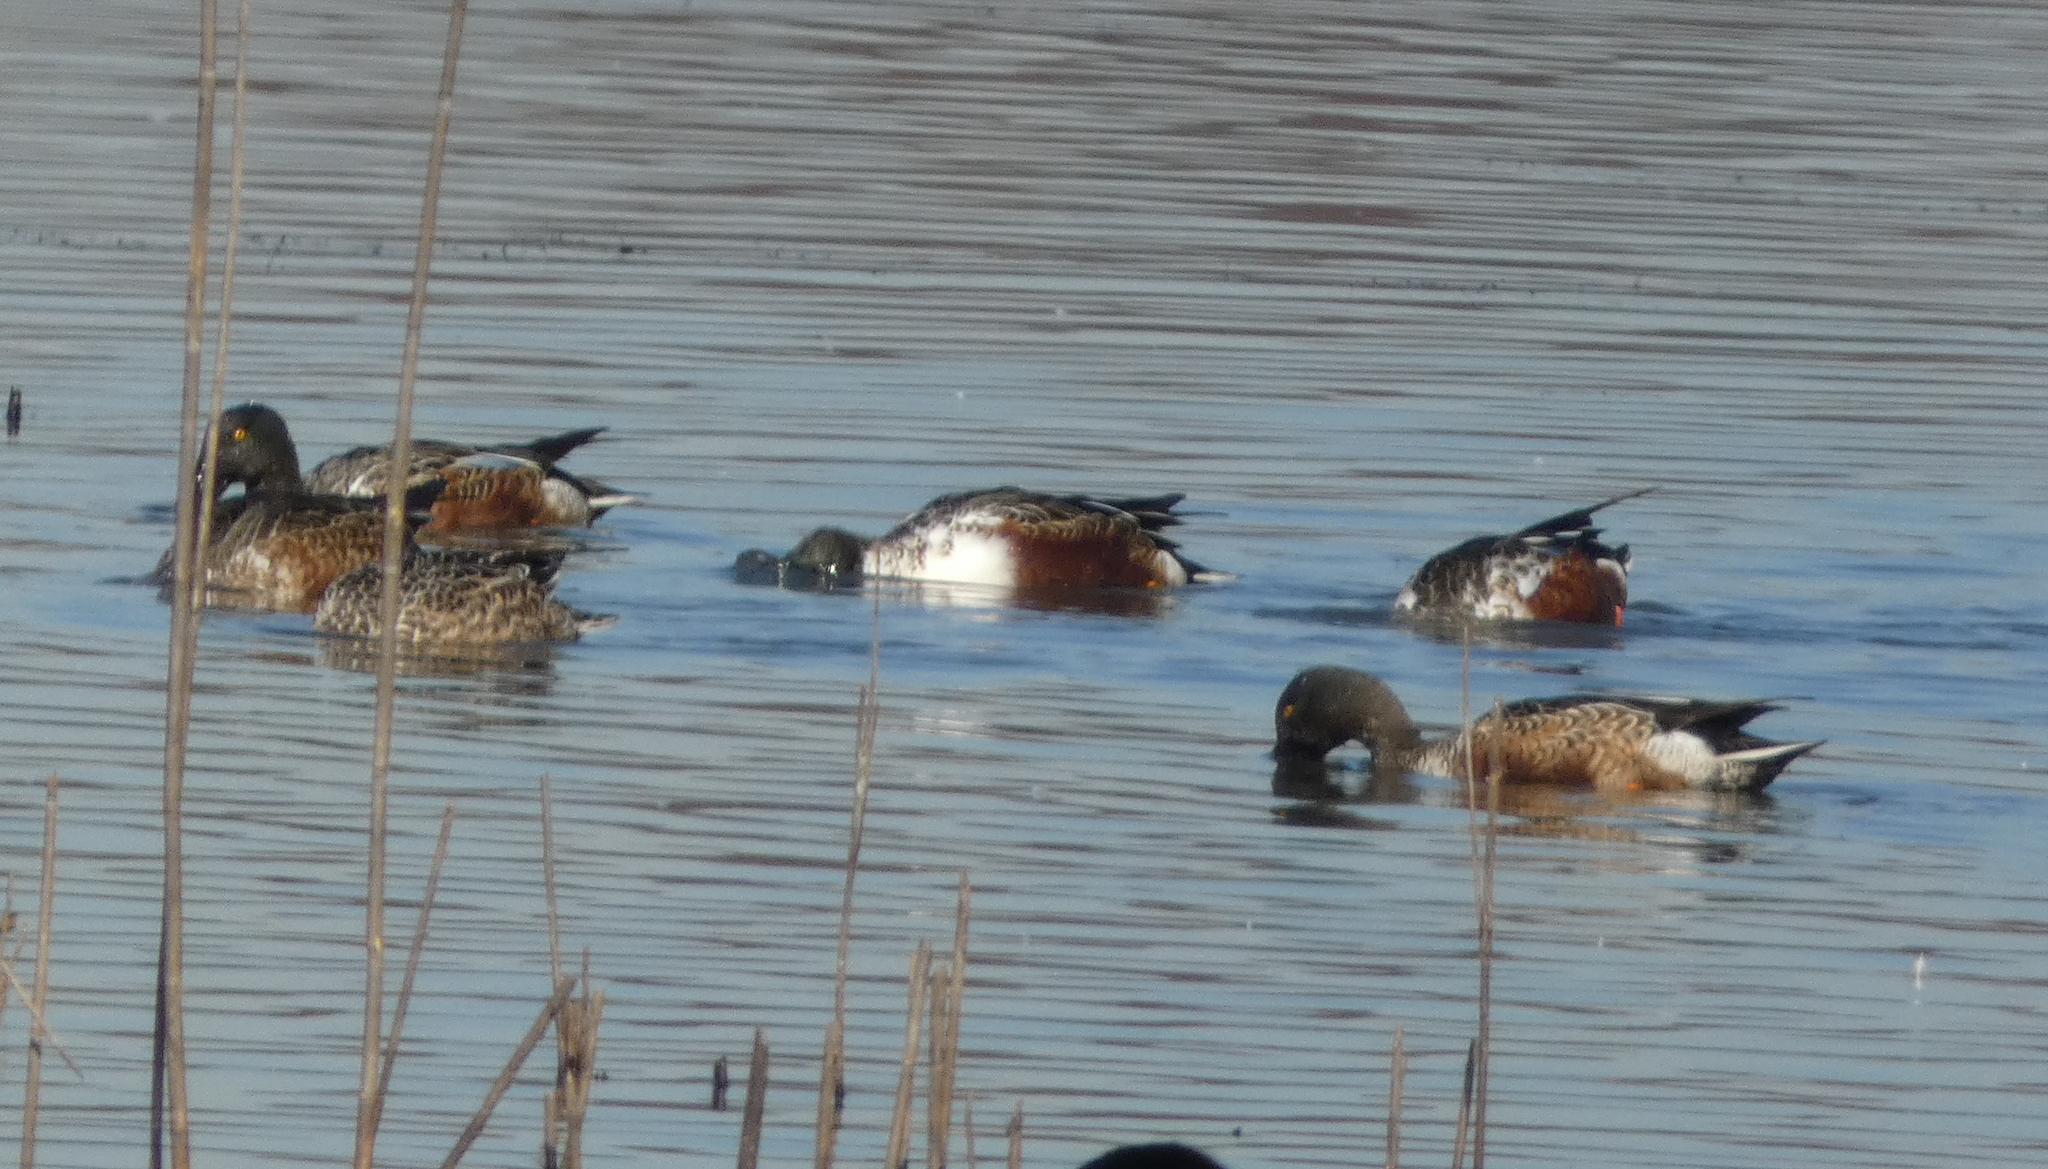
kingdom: Animalia
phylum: Chordata
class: Aves
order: Anseriformes
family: Anatidae
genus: Spatula
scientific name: Spatula clypeata
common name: Northern shoveler
